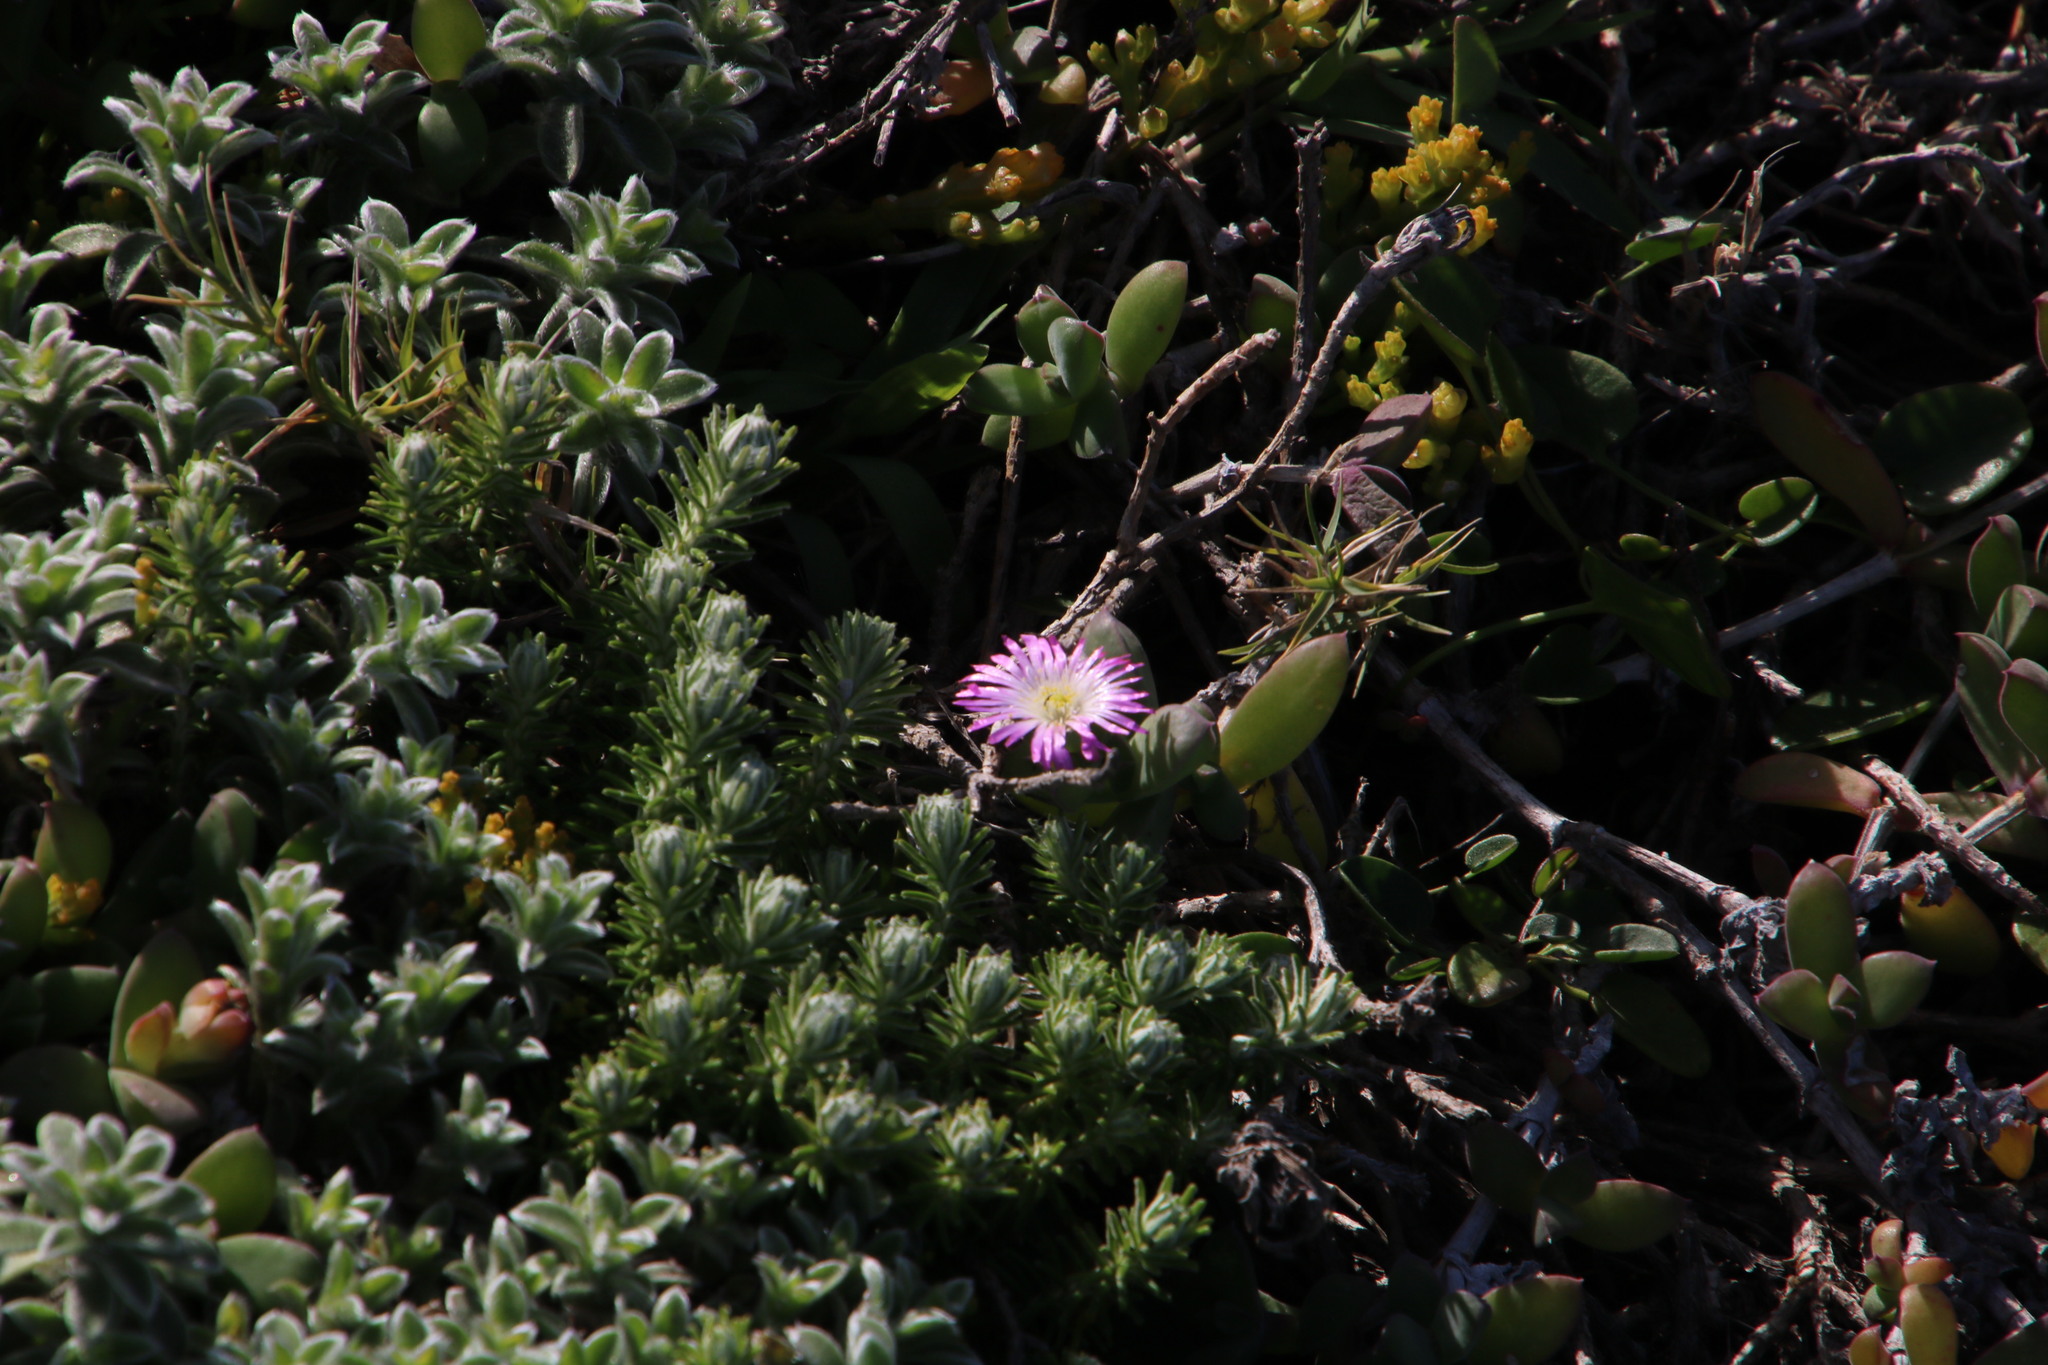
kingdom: Plantae
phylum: Tracheophyta
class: Magnoliopsida
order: Caryophyllales
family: Aizoaceae
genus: Delosperma
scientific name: Delosperma patersoniae
